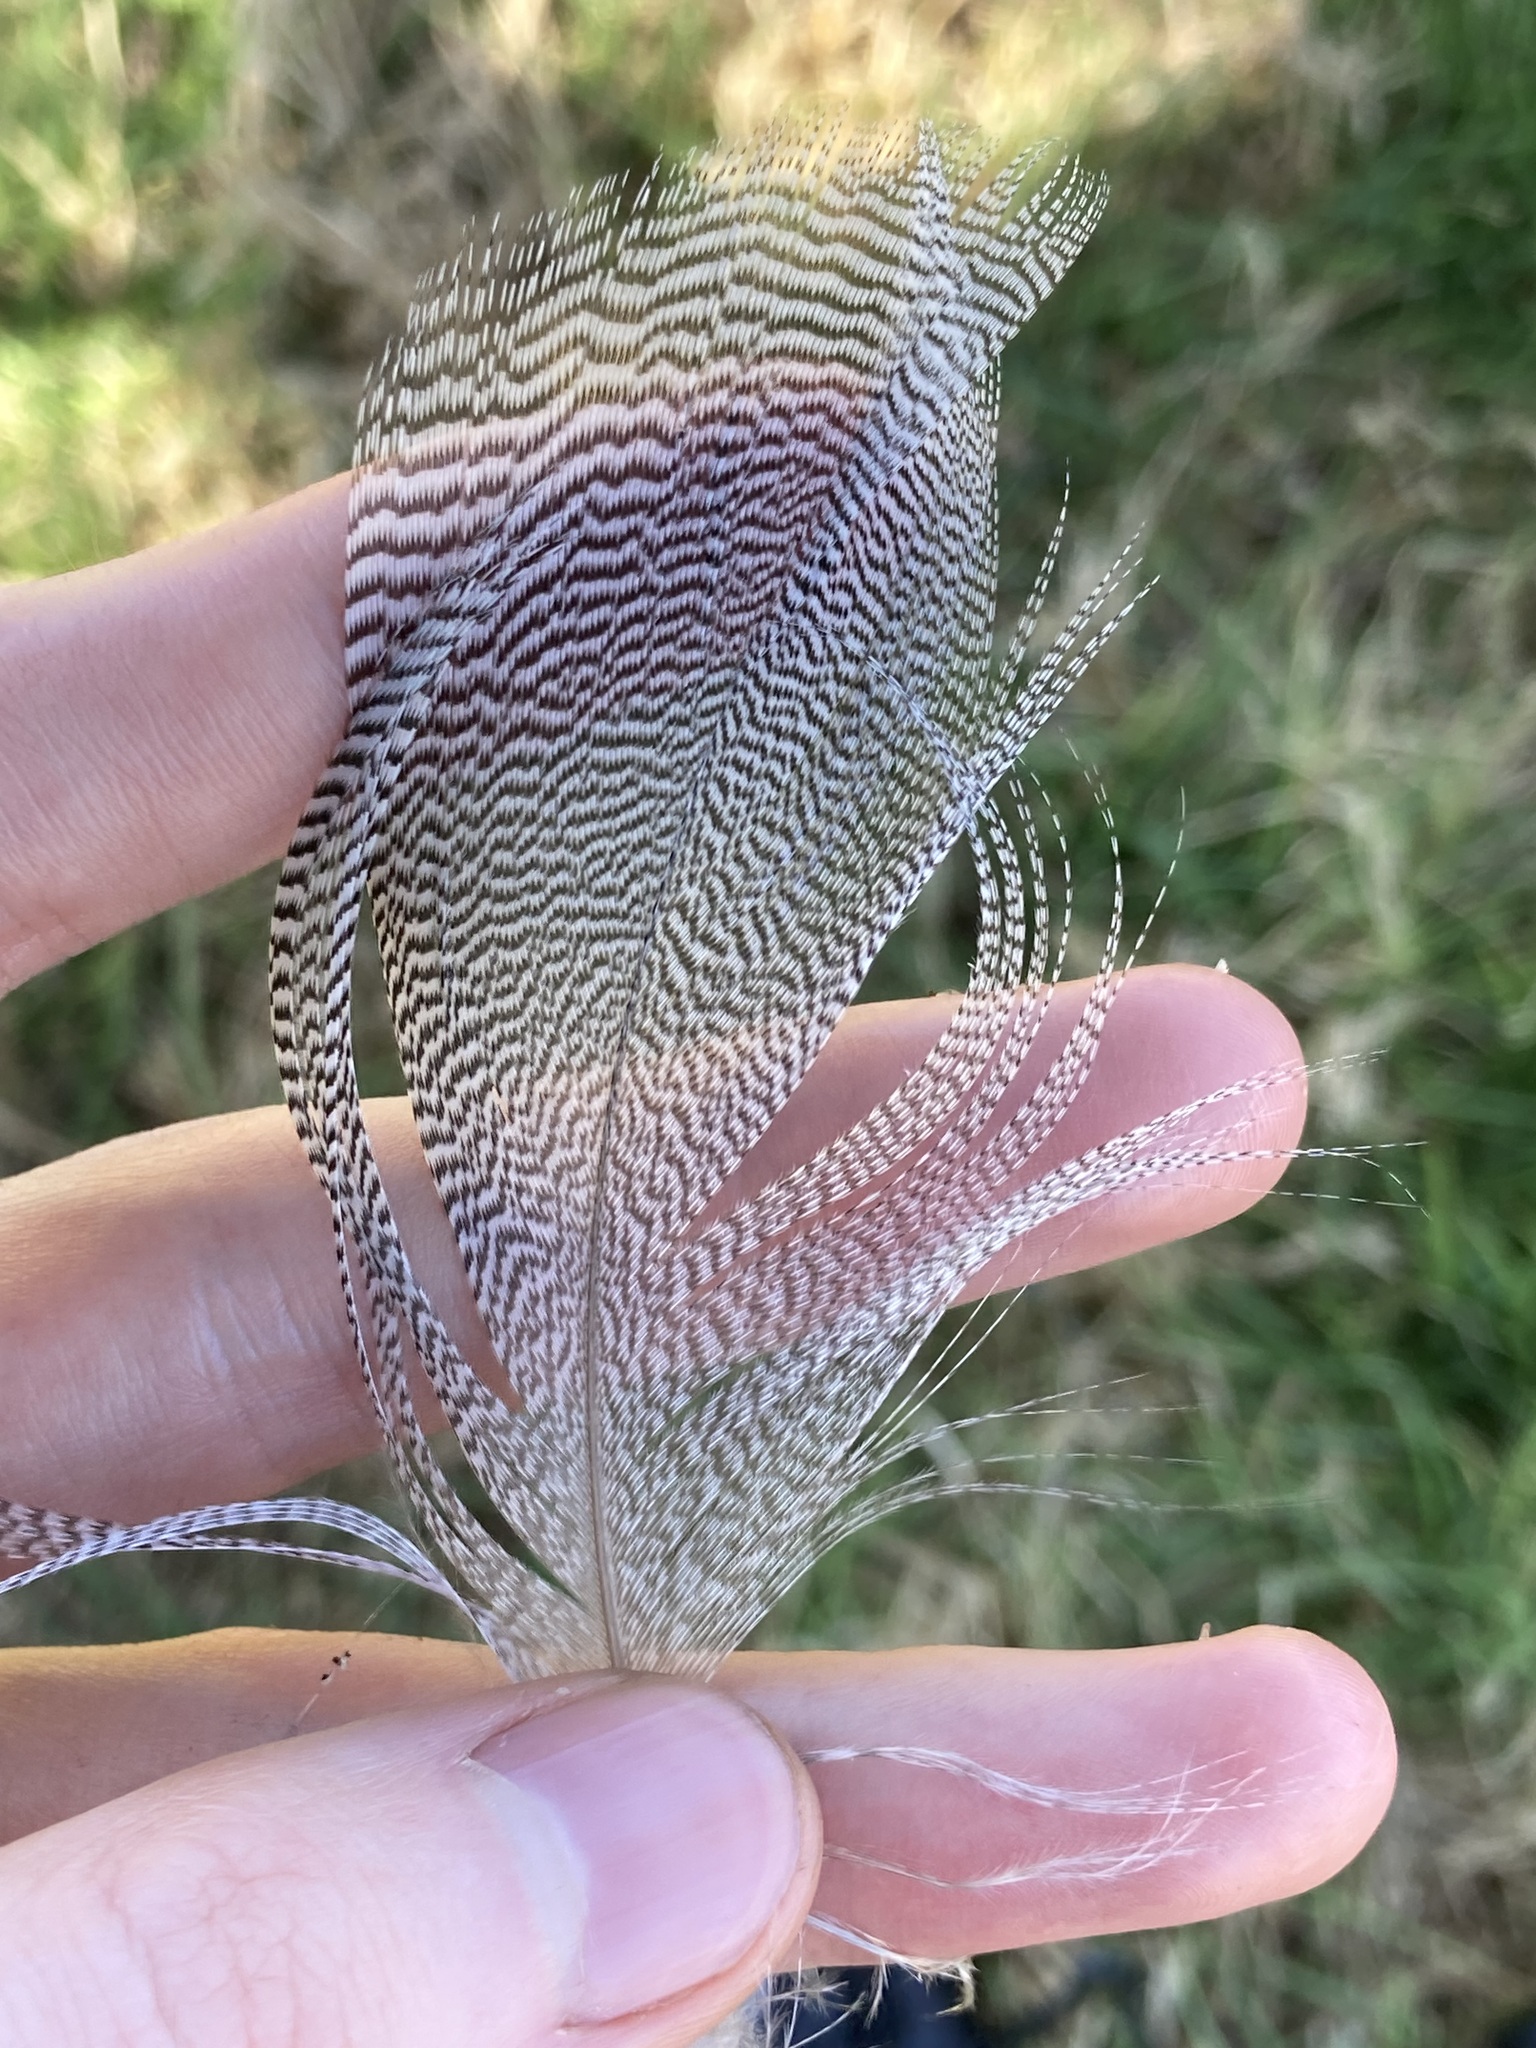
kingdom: Animalia
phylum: Chordata
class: Aves
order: Anseriformes
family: Anatidae
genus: Chenonetta
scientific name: Chenonetta jubata
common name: Maned duck
